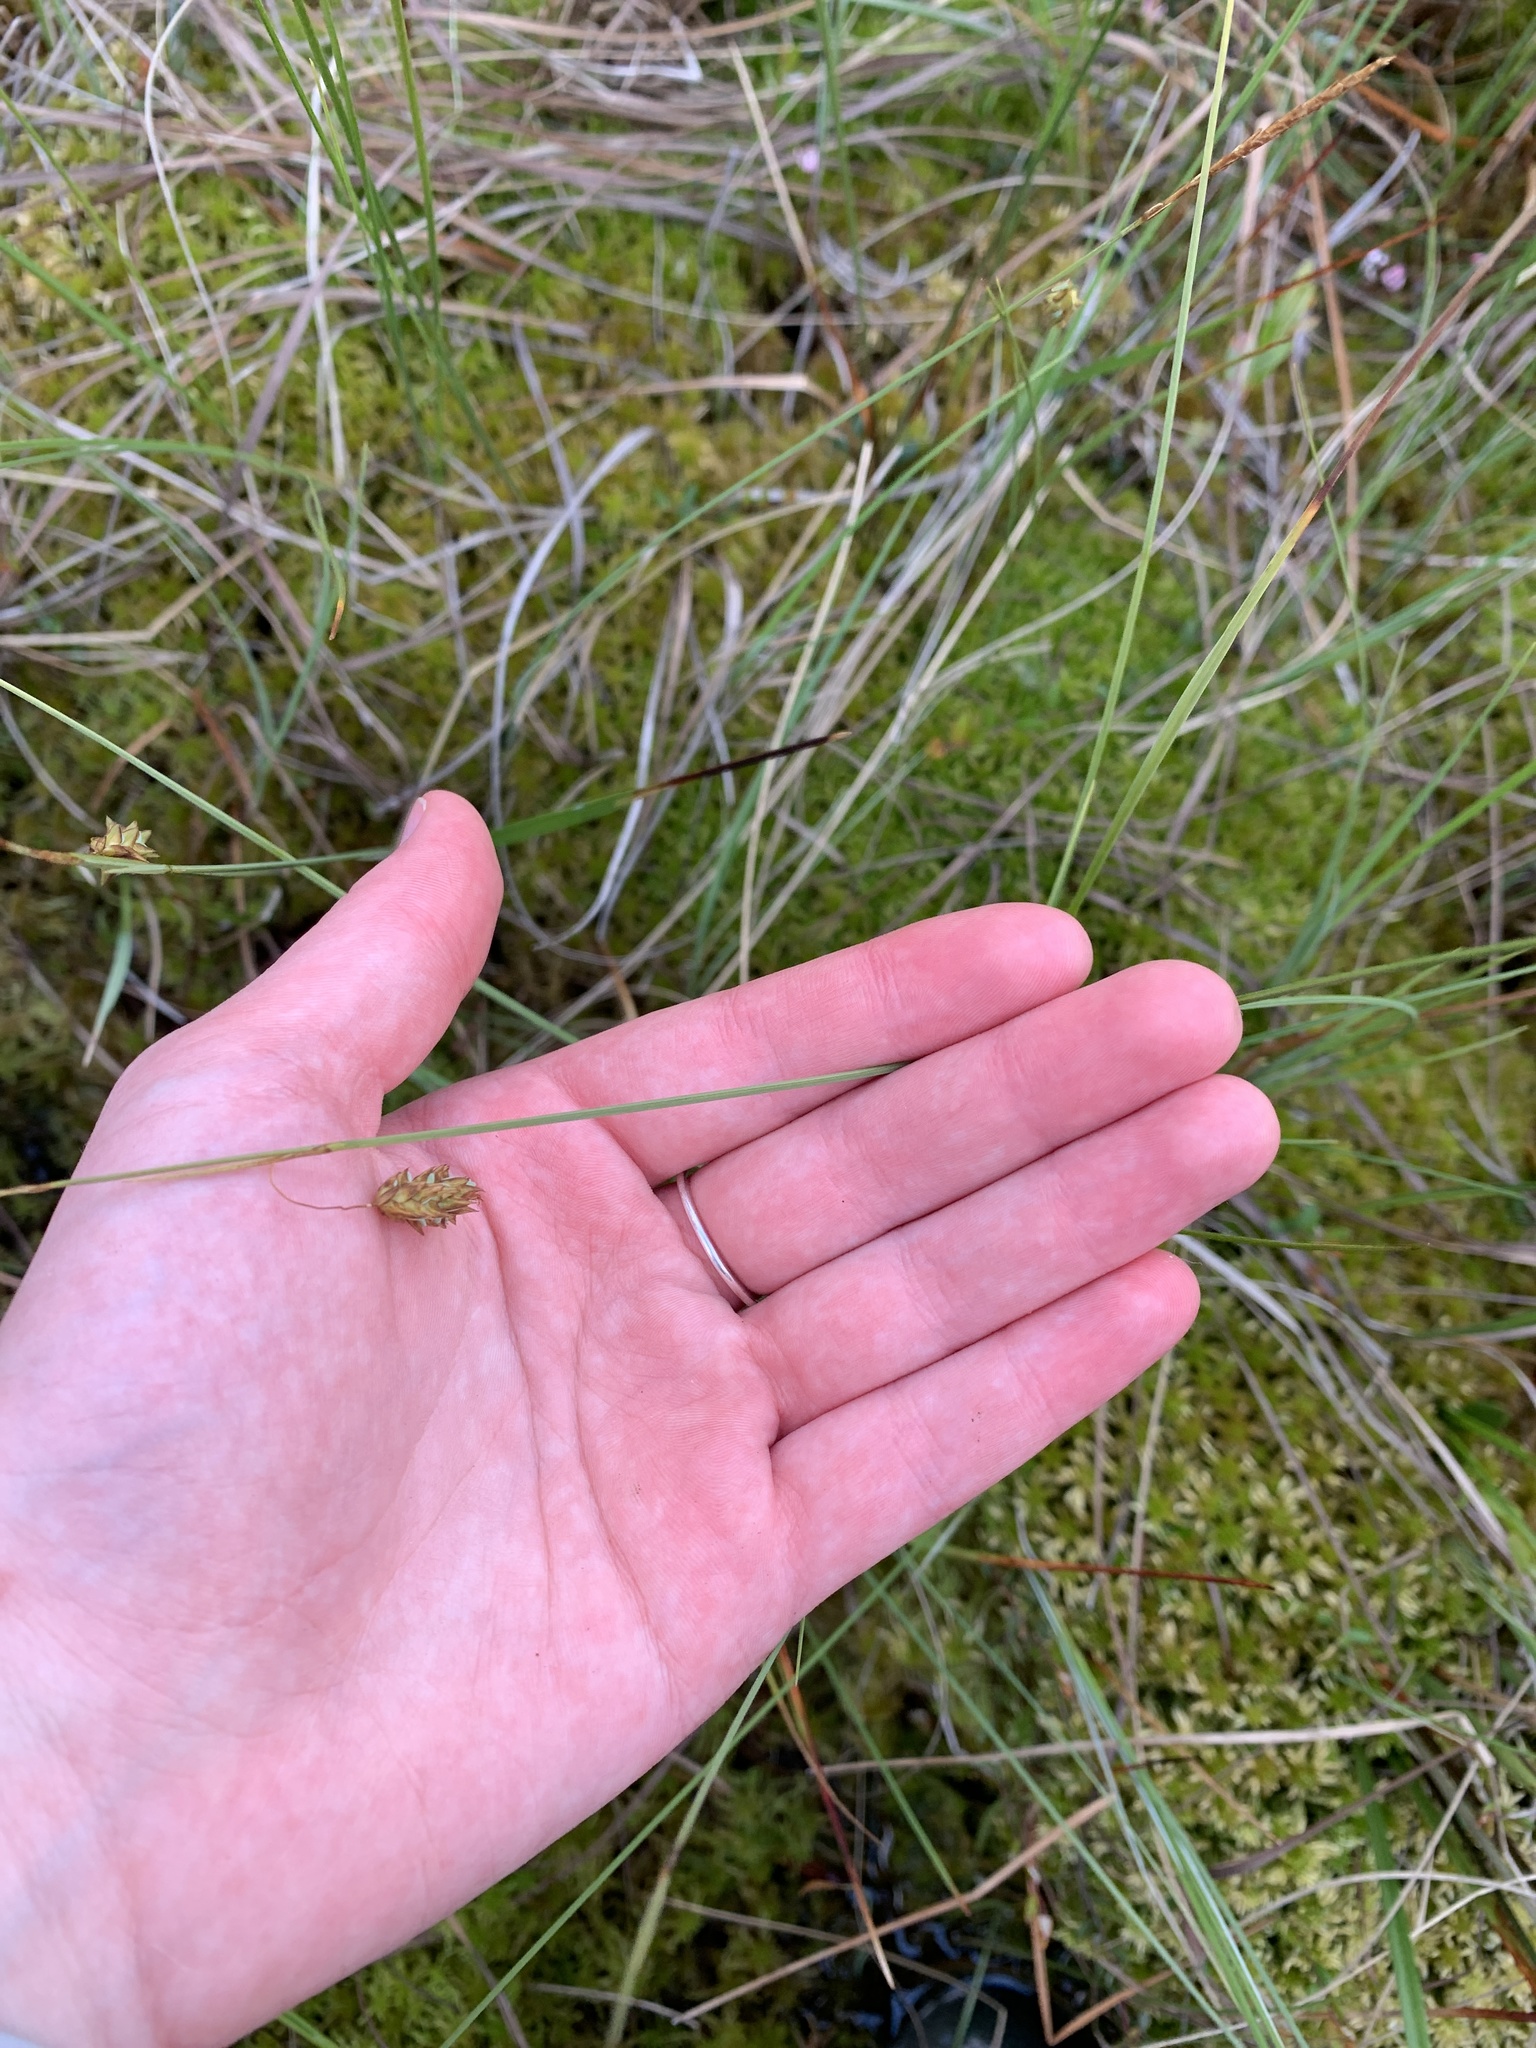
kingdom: Plantae
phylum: Tracheophyta
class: Liliopsida
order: Poales
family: Cyperaceae
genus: Carex
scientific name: Carex limosa
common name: Bog sedge
